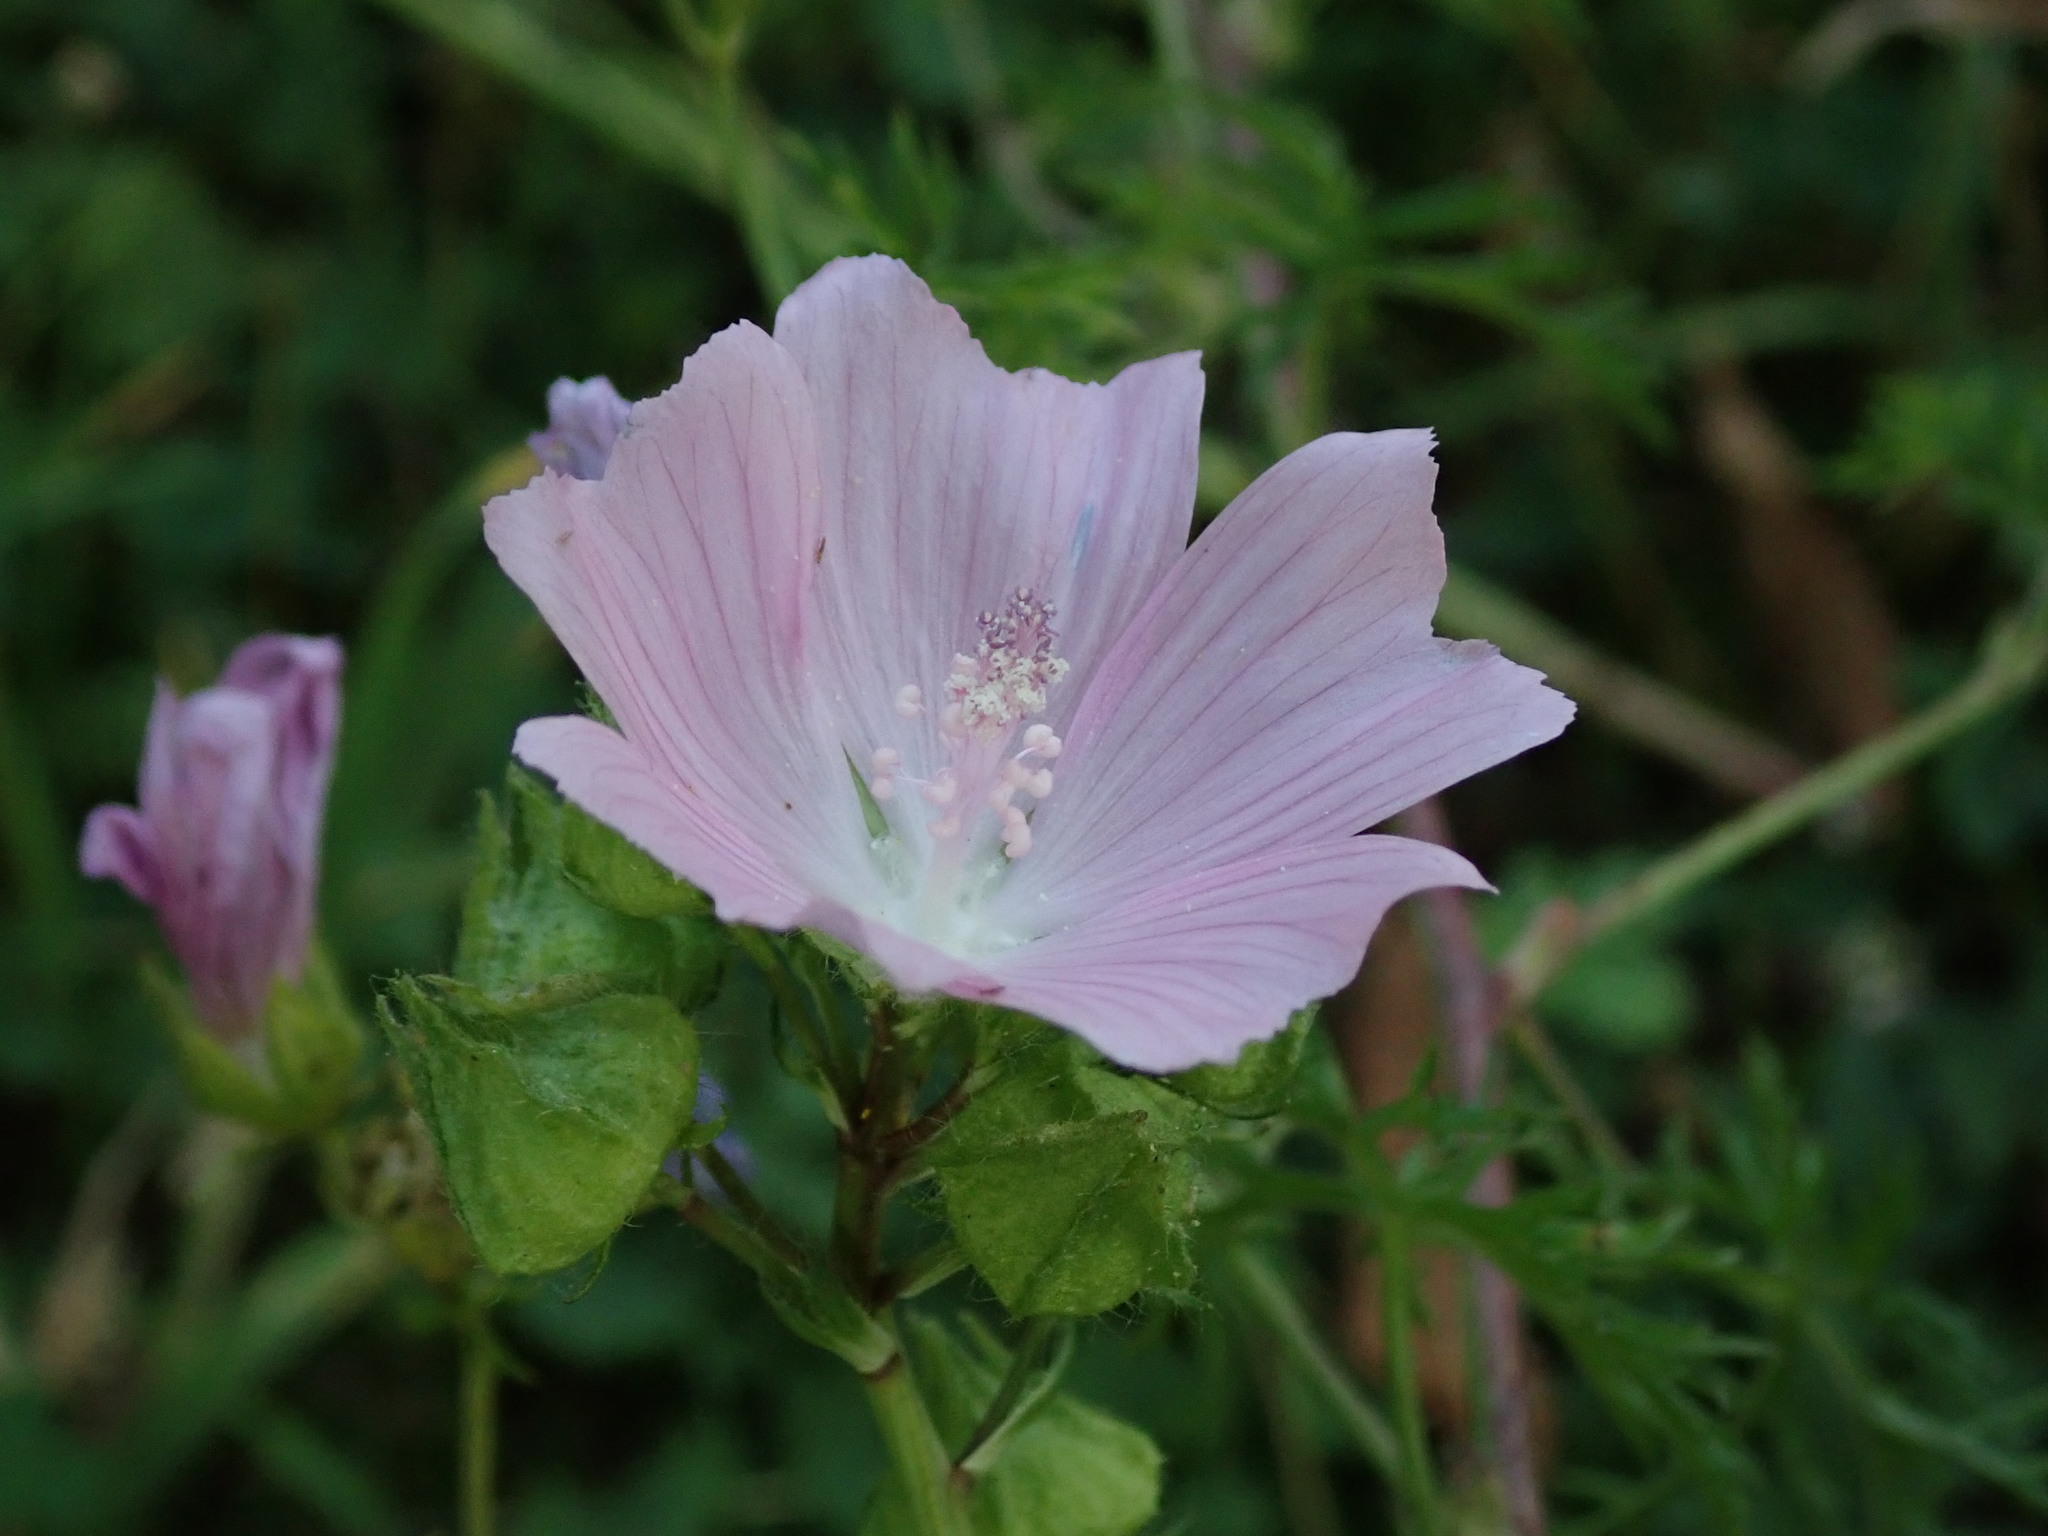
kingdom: Plantae
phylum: Tracheophyta
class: Magnoliopsida
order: Malvales
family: Malvaceae
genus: Malva
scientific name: Malva moschata
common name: Musk mallow
